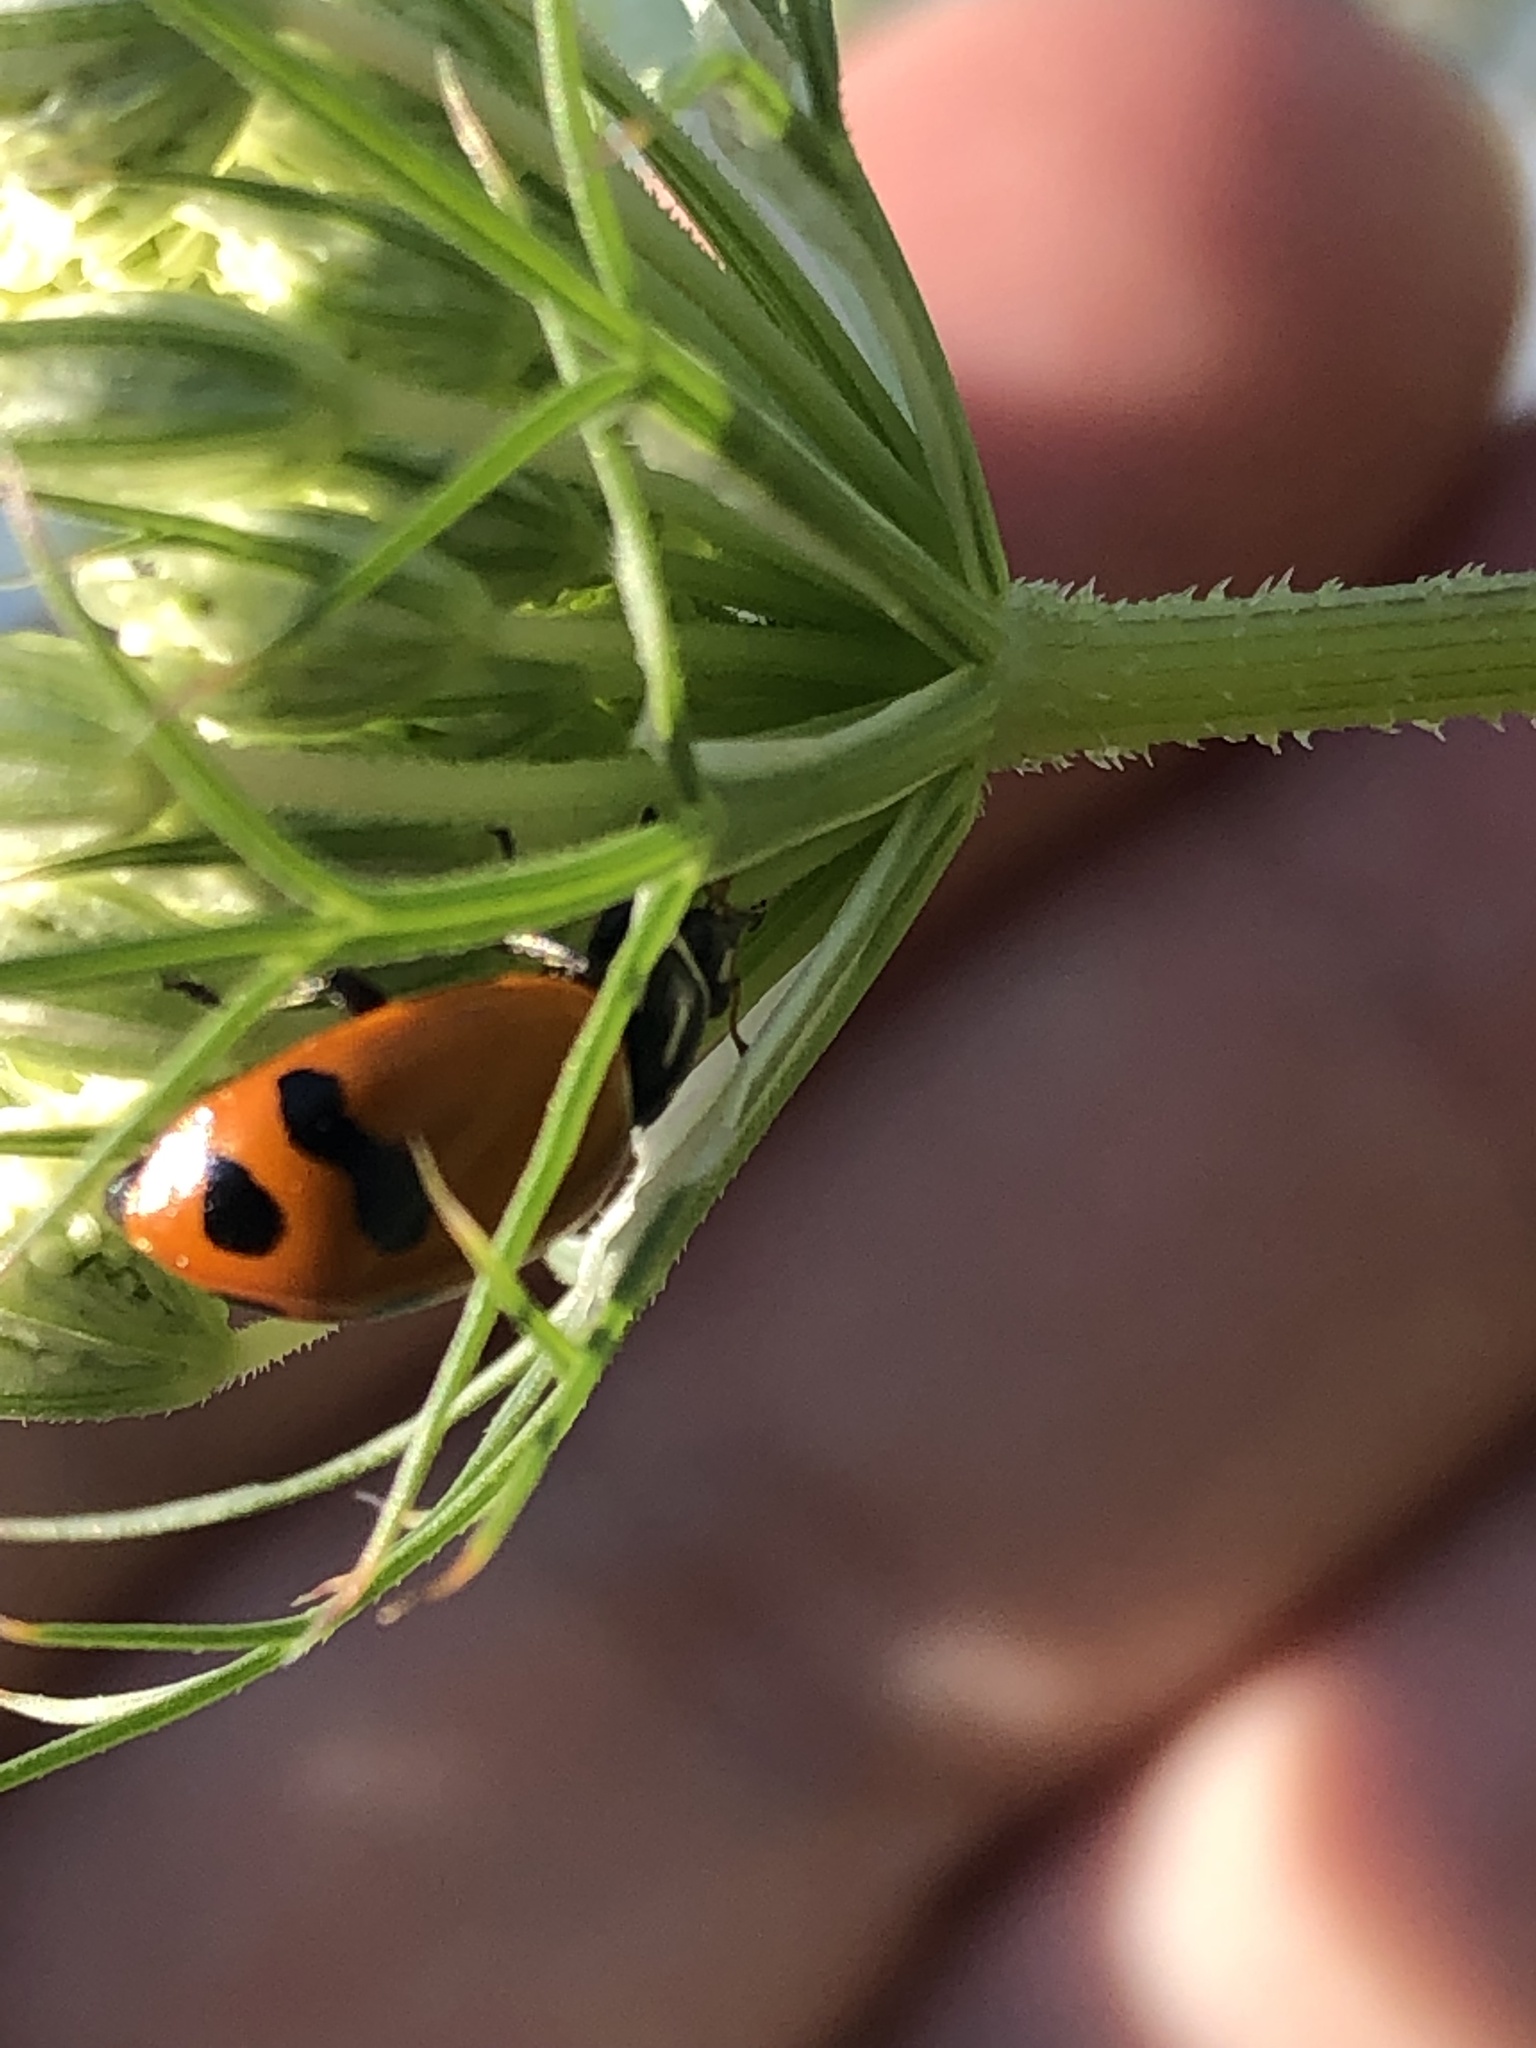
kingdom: Animalia
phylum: Arthropoda
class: Insecta
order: Coleoptera
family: Coccinellidae
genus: Hippodamia
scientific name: Hippodamia glacialis
